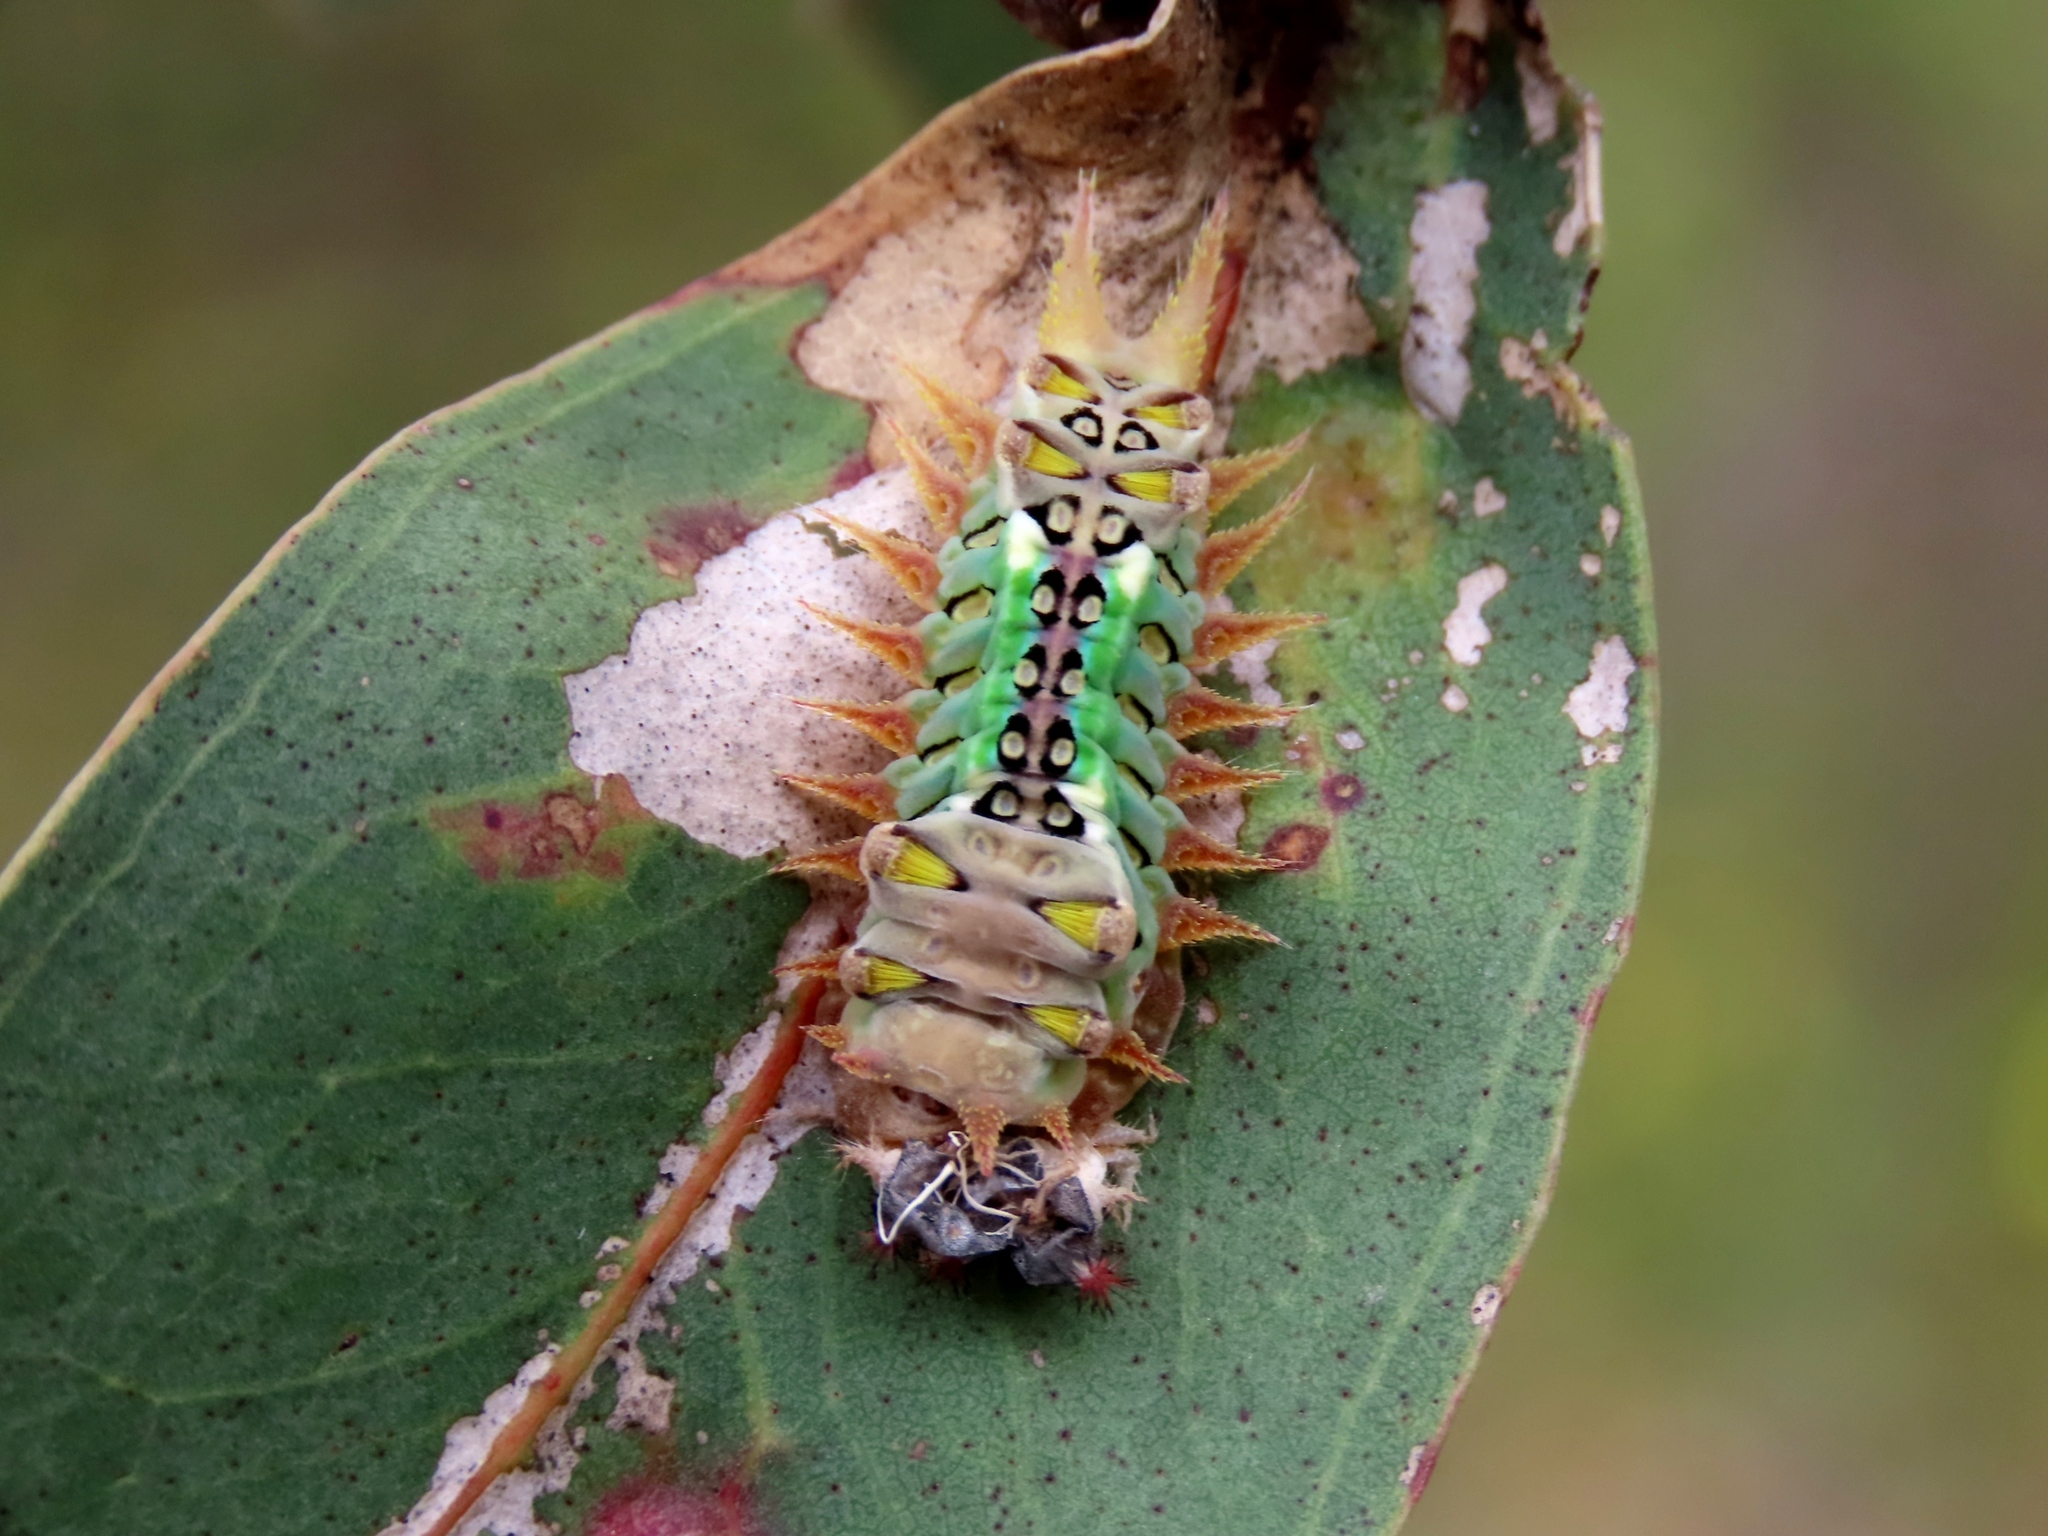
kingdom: Animalia
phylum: Arthropoda
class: Insecta
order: Lepidoptera
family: Limacodidae
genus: Doratifera
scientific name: Doratifera oxleyi
